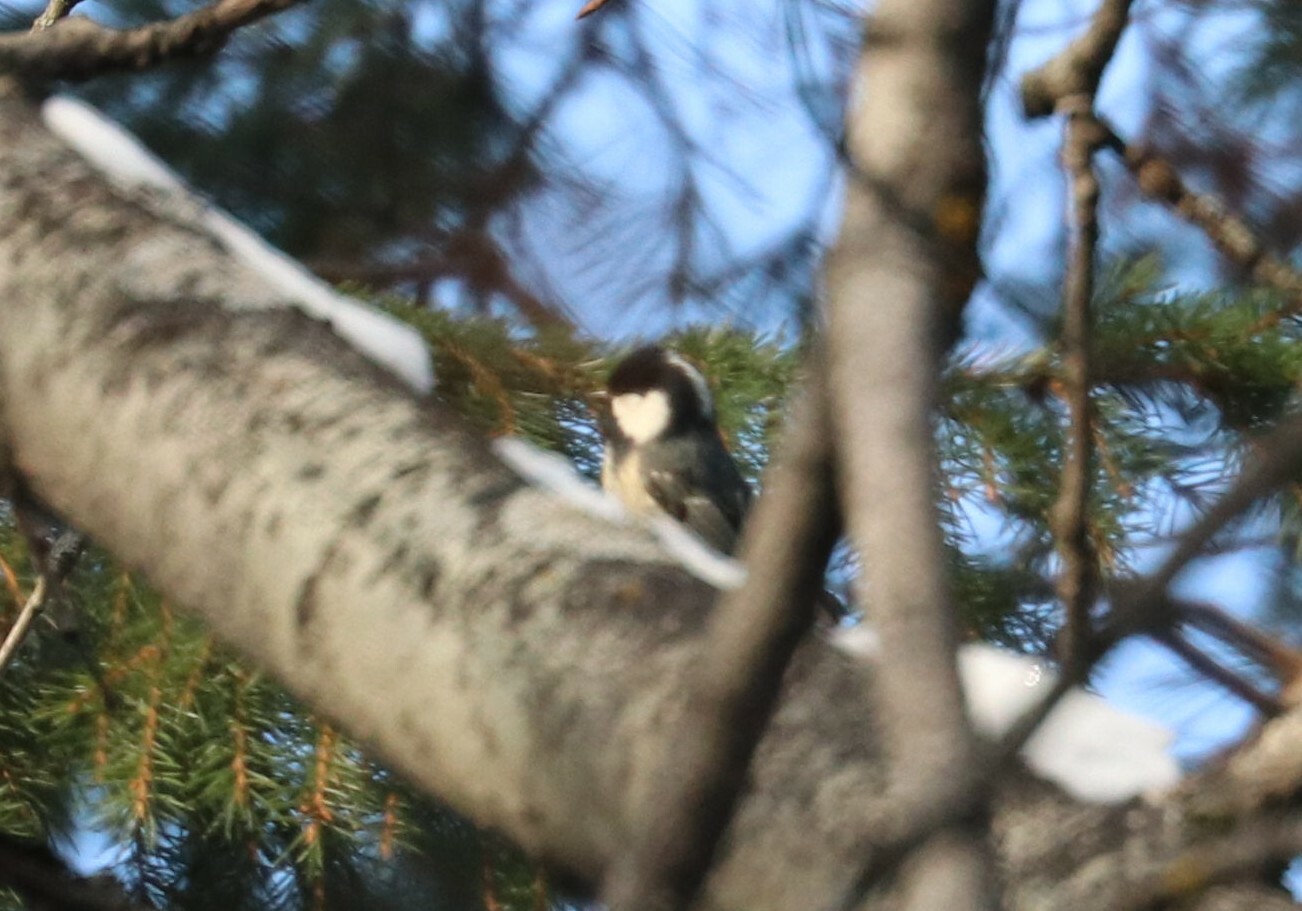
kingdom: Animalia
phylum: Chordata
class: Aves
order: Passeriformes
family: Paridae
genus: Periparus
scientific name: Periparus ater
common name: Coal tit
